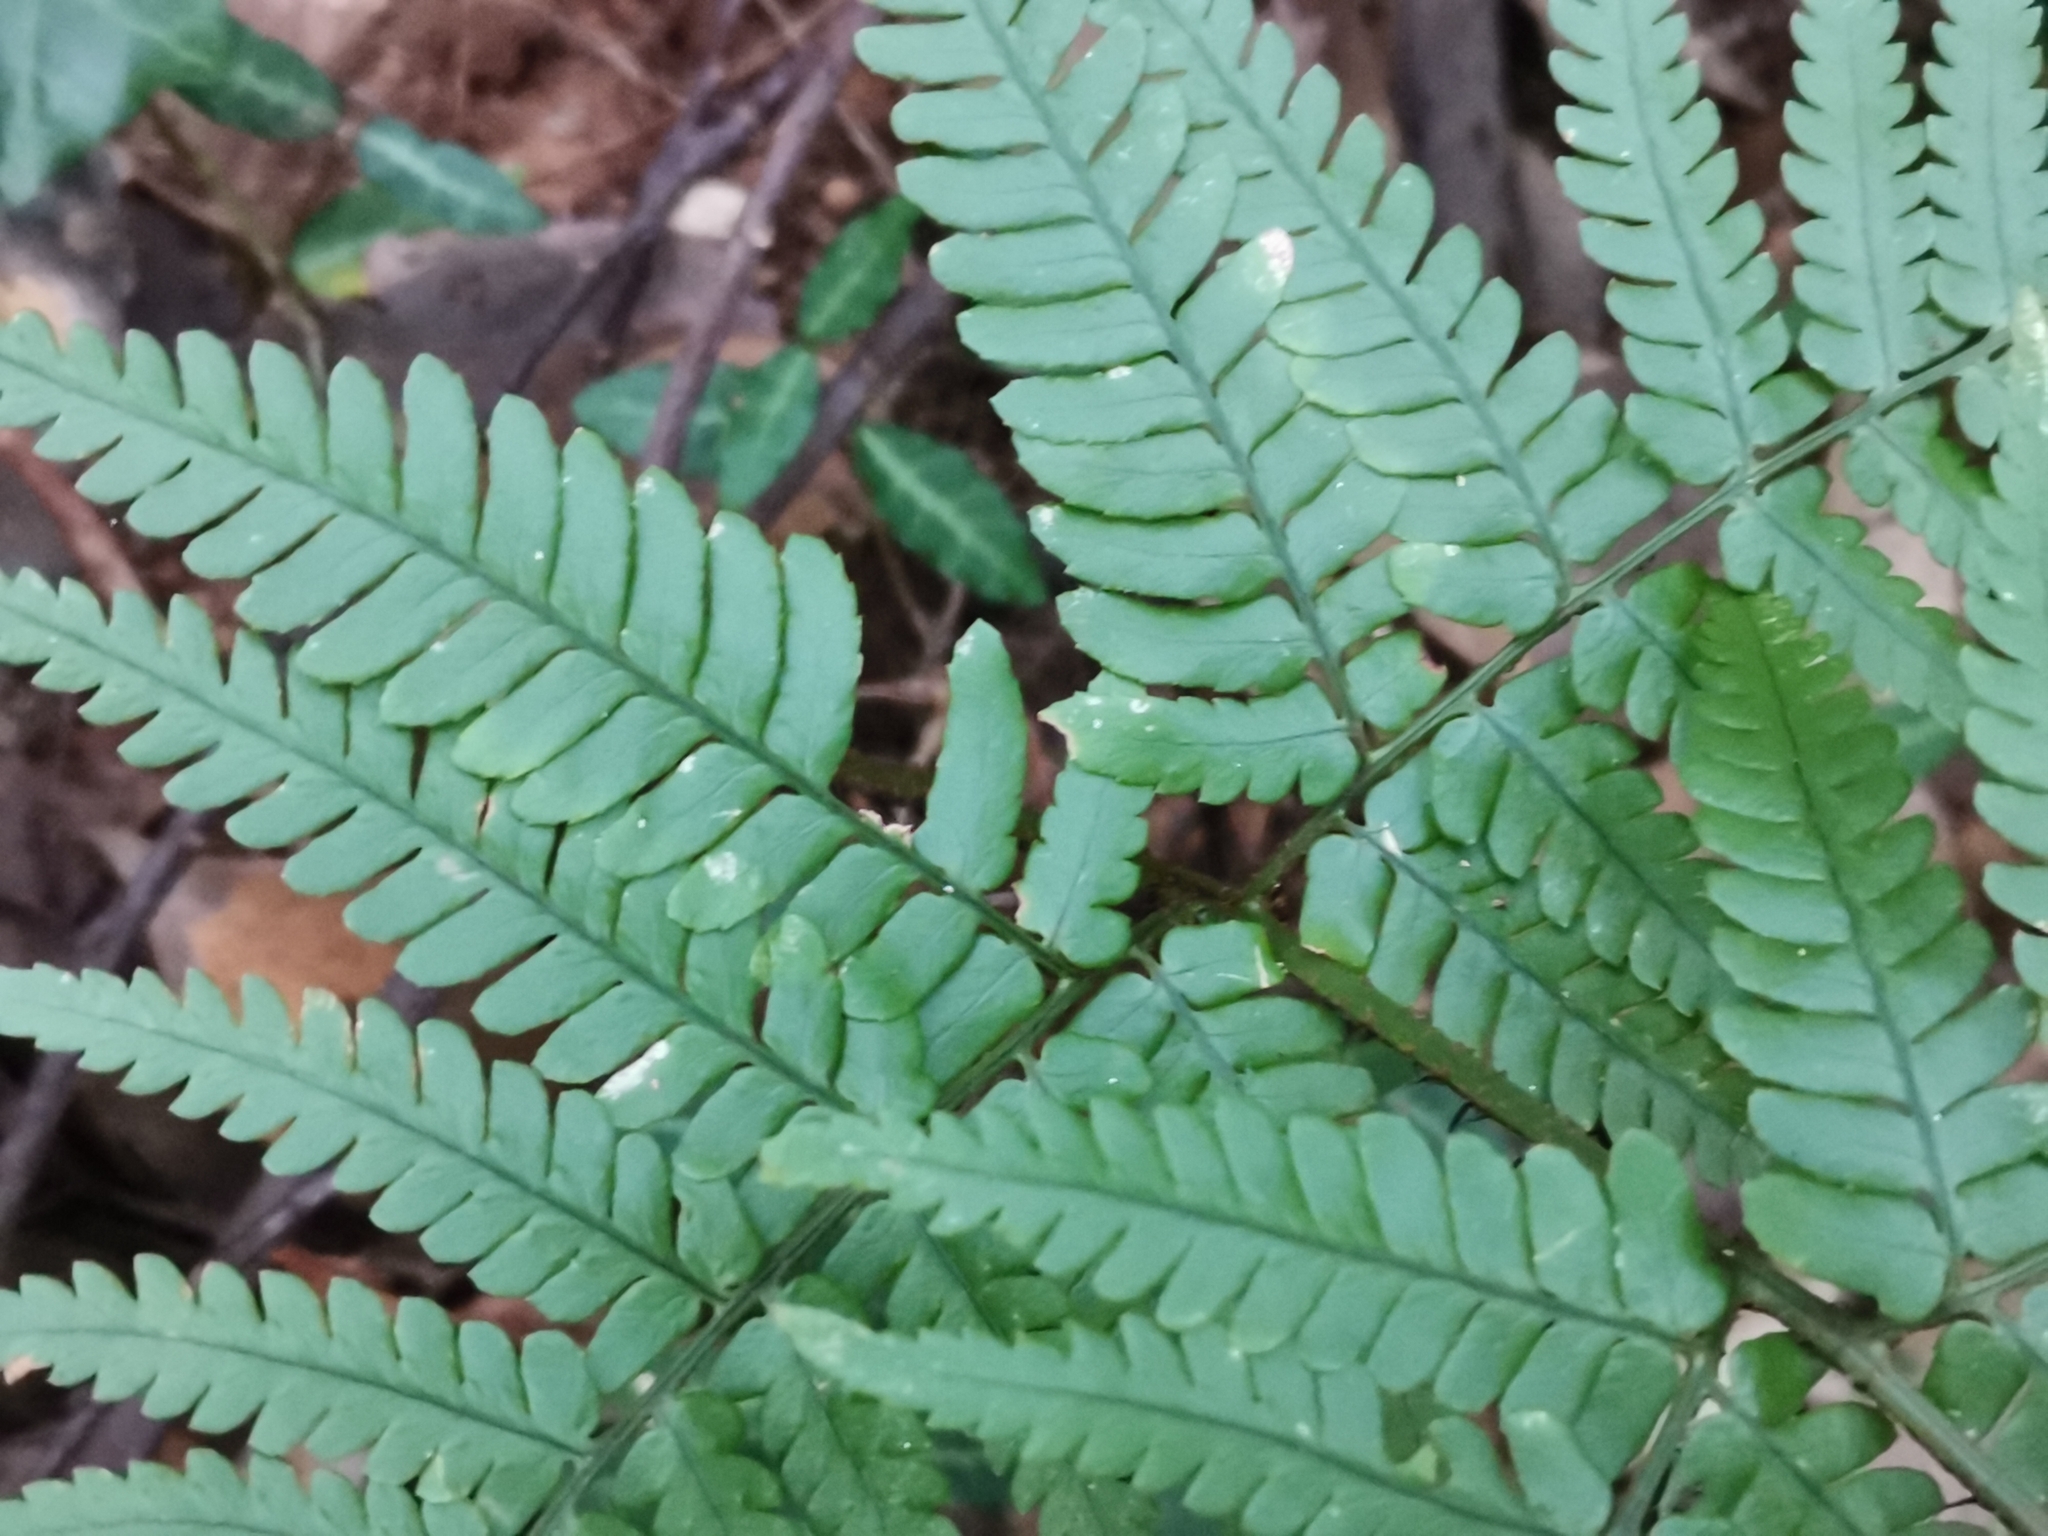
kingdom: Plantae
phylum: Tracheophyta
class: Polypodiopsida
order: Polypodiales
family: Dryopteridaceae
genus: Dryopteris
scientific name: Dryopteris sacrosancta
